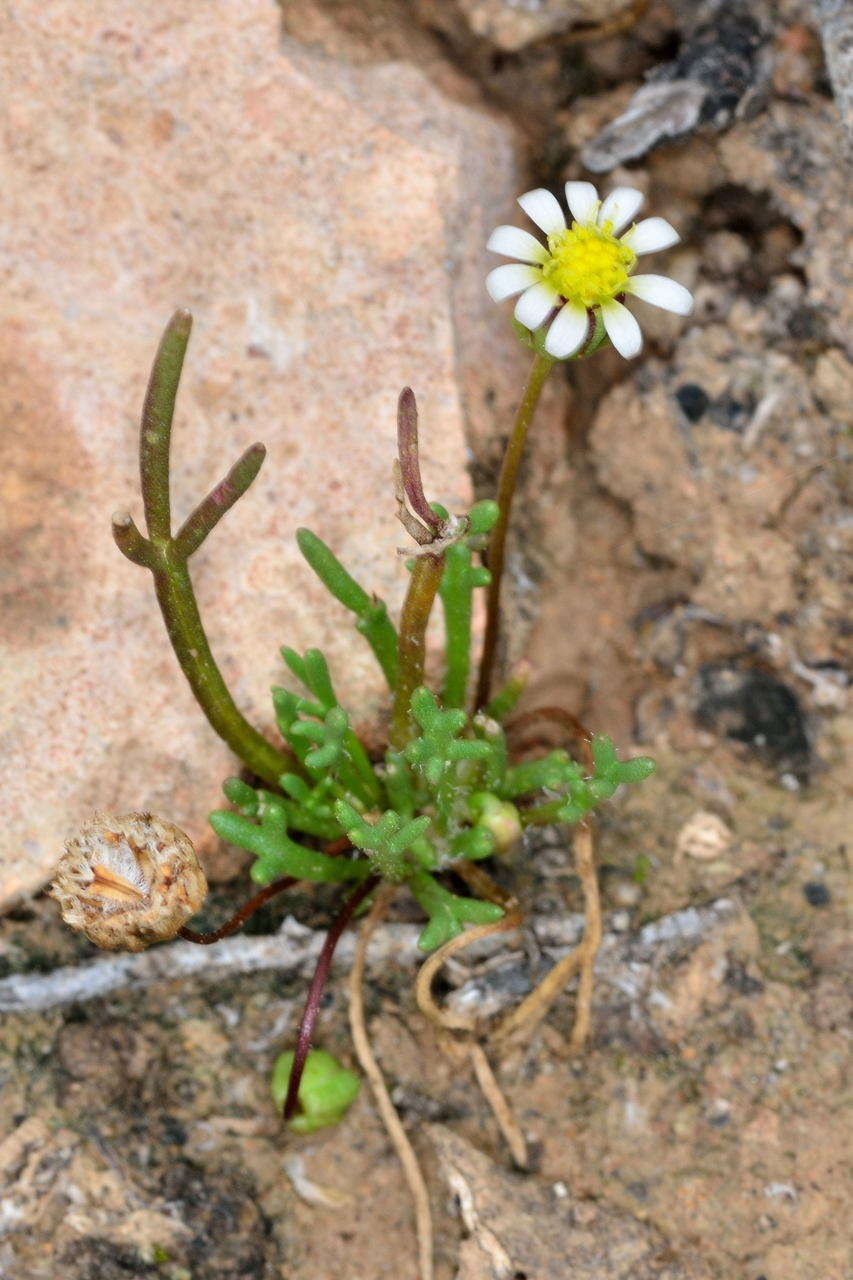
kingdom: Plantae
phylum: Tracheophyta
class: Magnoliopsida
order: Asterales
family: Asteraceae
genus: Brachyscome
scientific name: Brachyscome lineariloba
